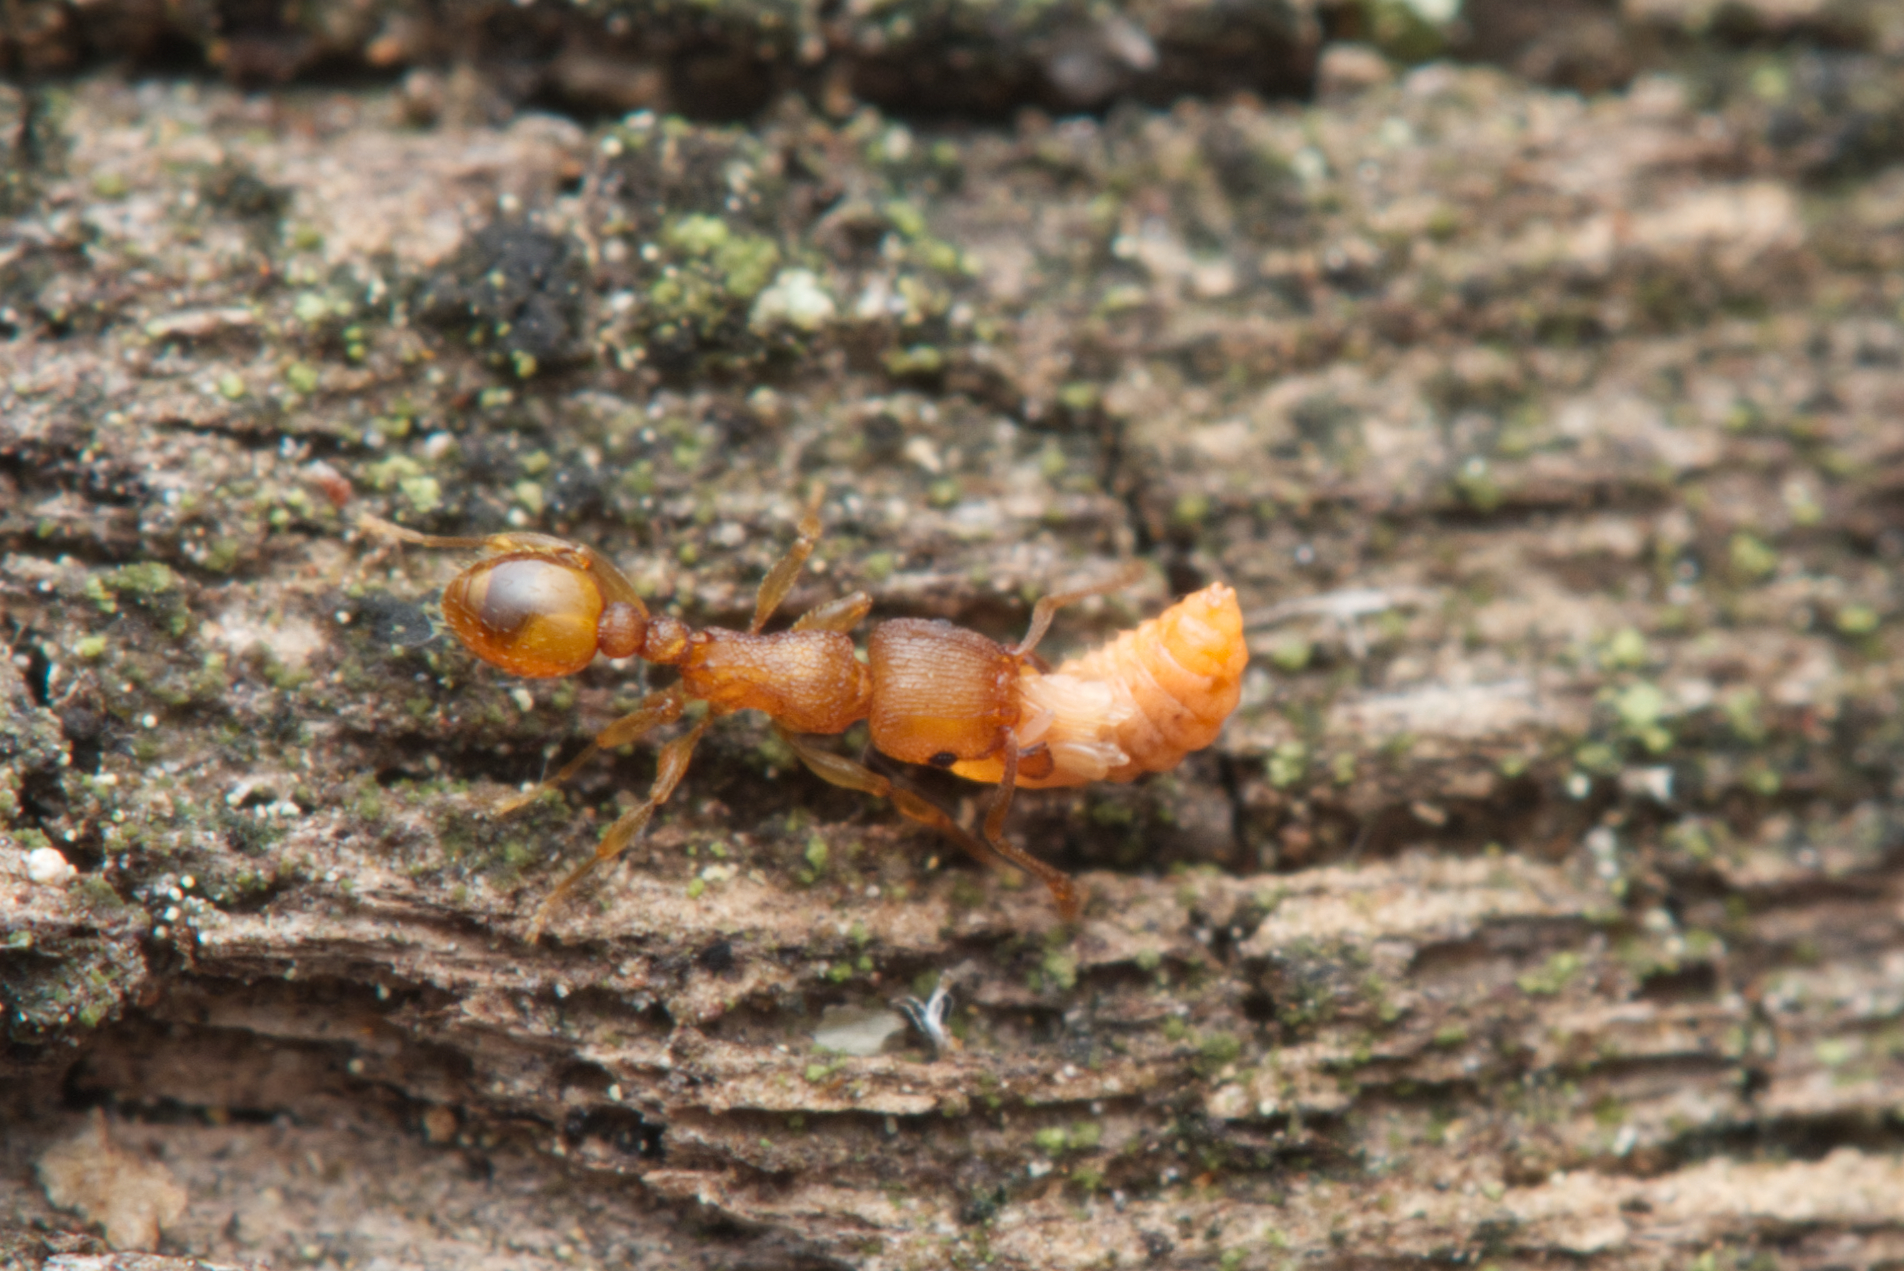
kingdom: Animalia
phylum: Arthropoda
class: Insecta
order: Hymenoptera
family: Formicidae
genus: Tetramorium
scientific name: Tetramorium simillimum
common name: Ant
